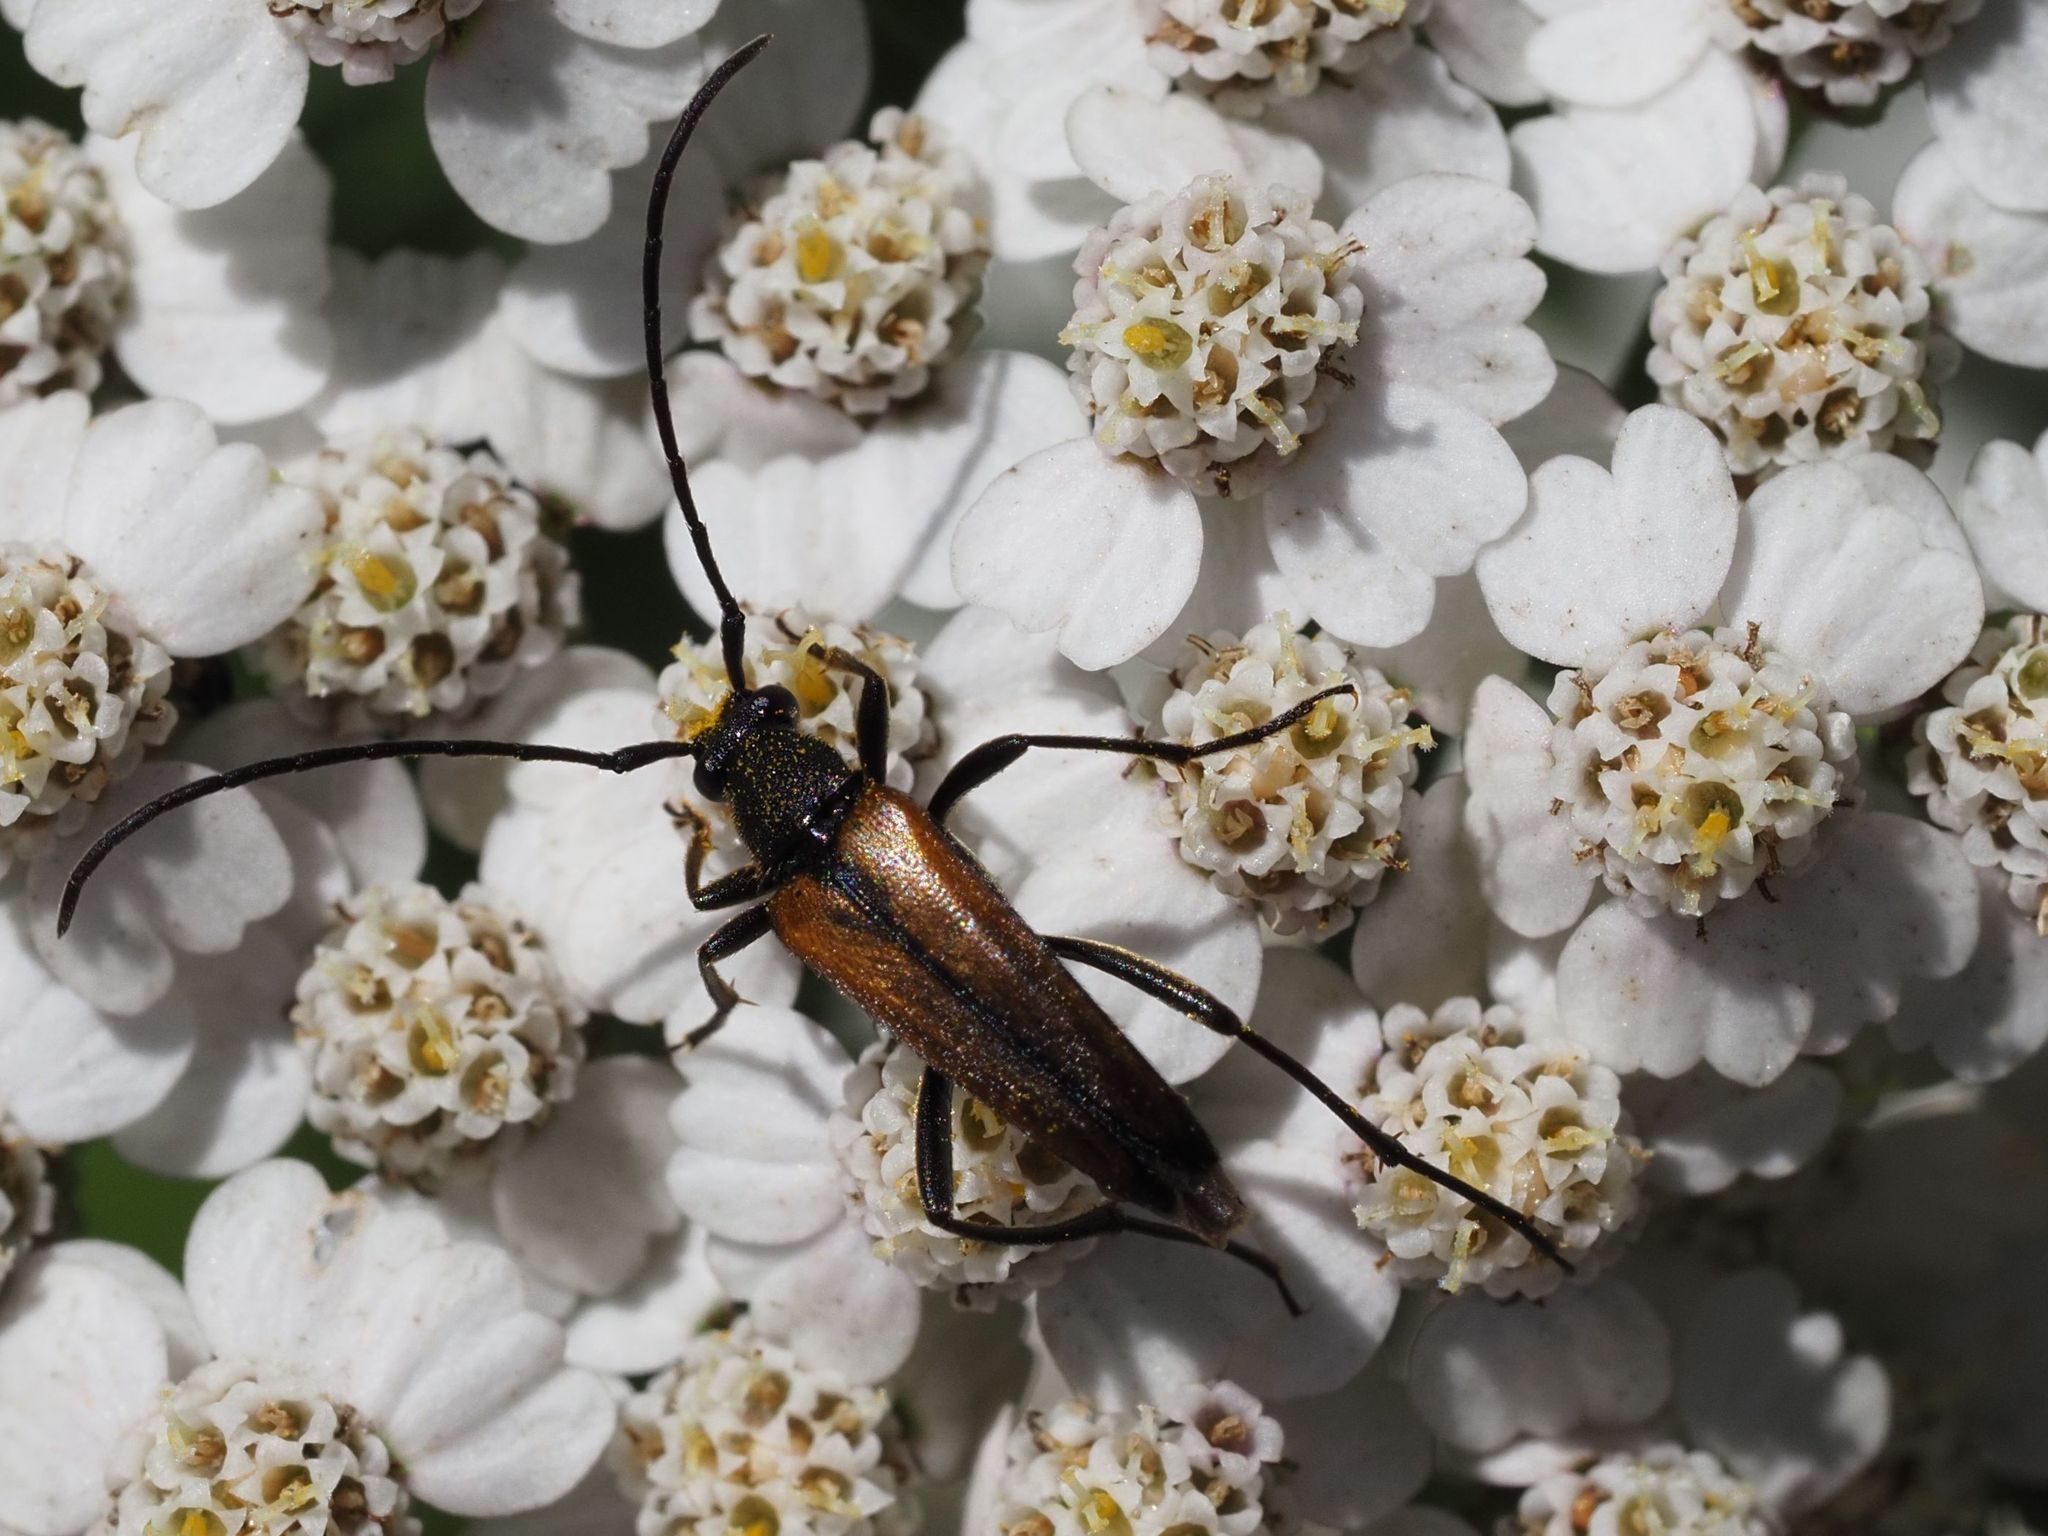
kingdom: Animalia
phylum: Arthropoda
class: Insecta
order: Coleoptera
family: Cerambycidae
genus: Stenurella
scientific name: Stenurella melanura
